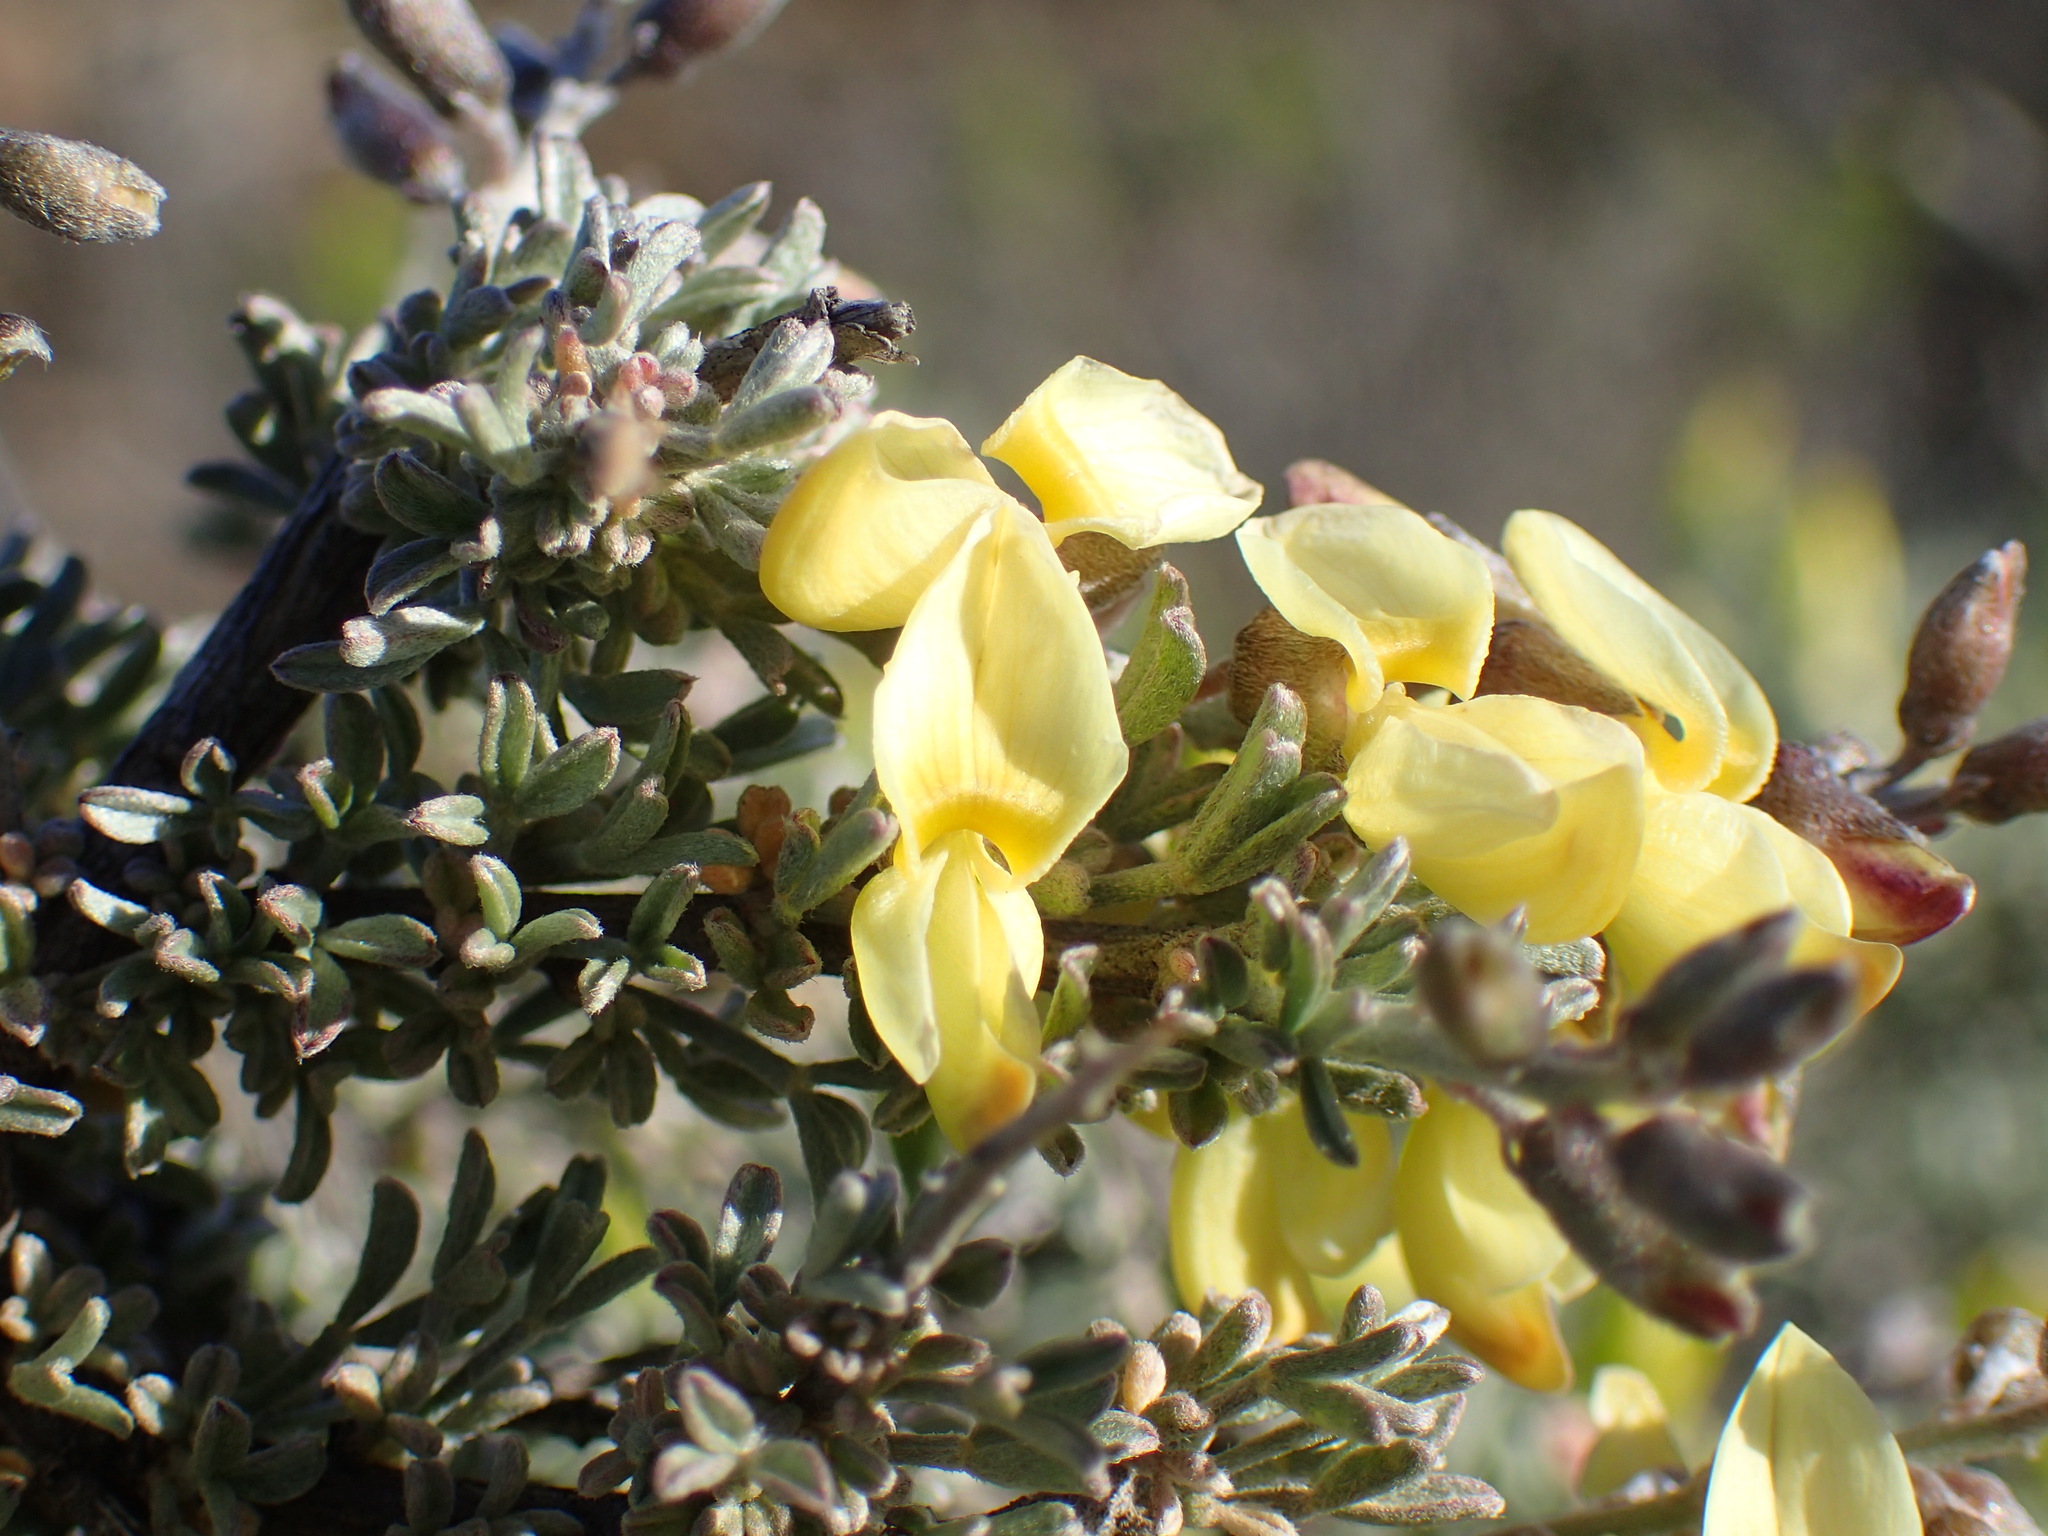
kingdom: Plantae
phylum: Tracheophyta
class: Magnoliopsida
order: Fabales
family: Fabaceae
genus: Wiborgia
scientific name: Wiborgia sericea
